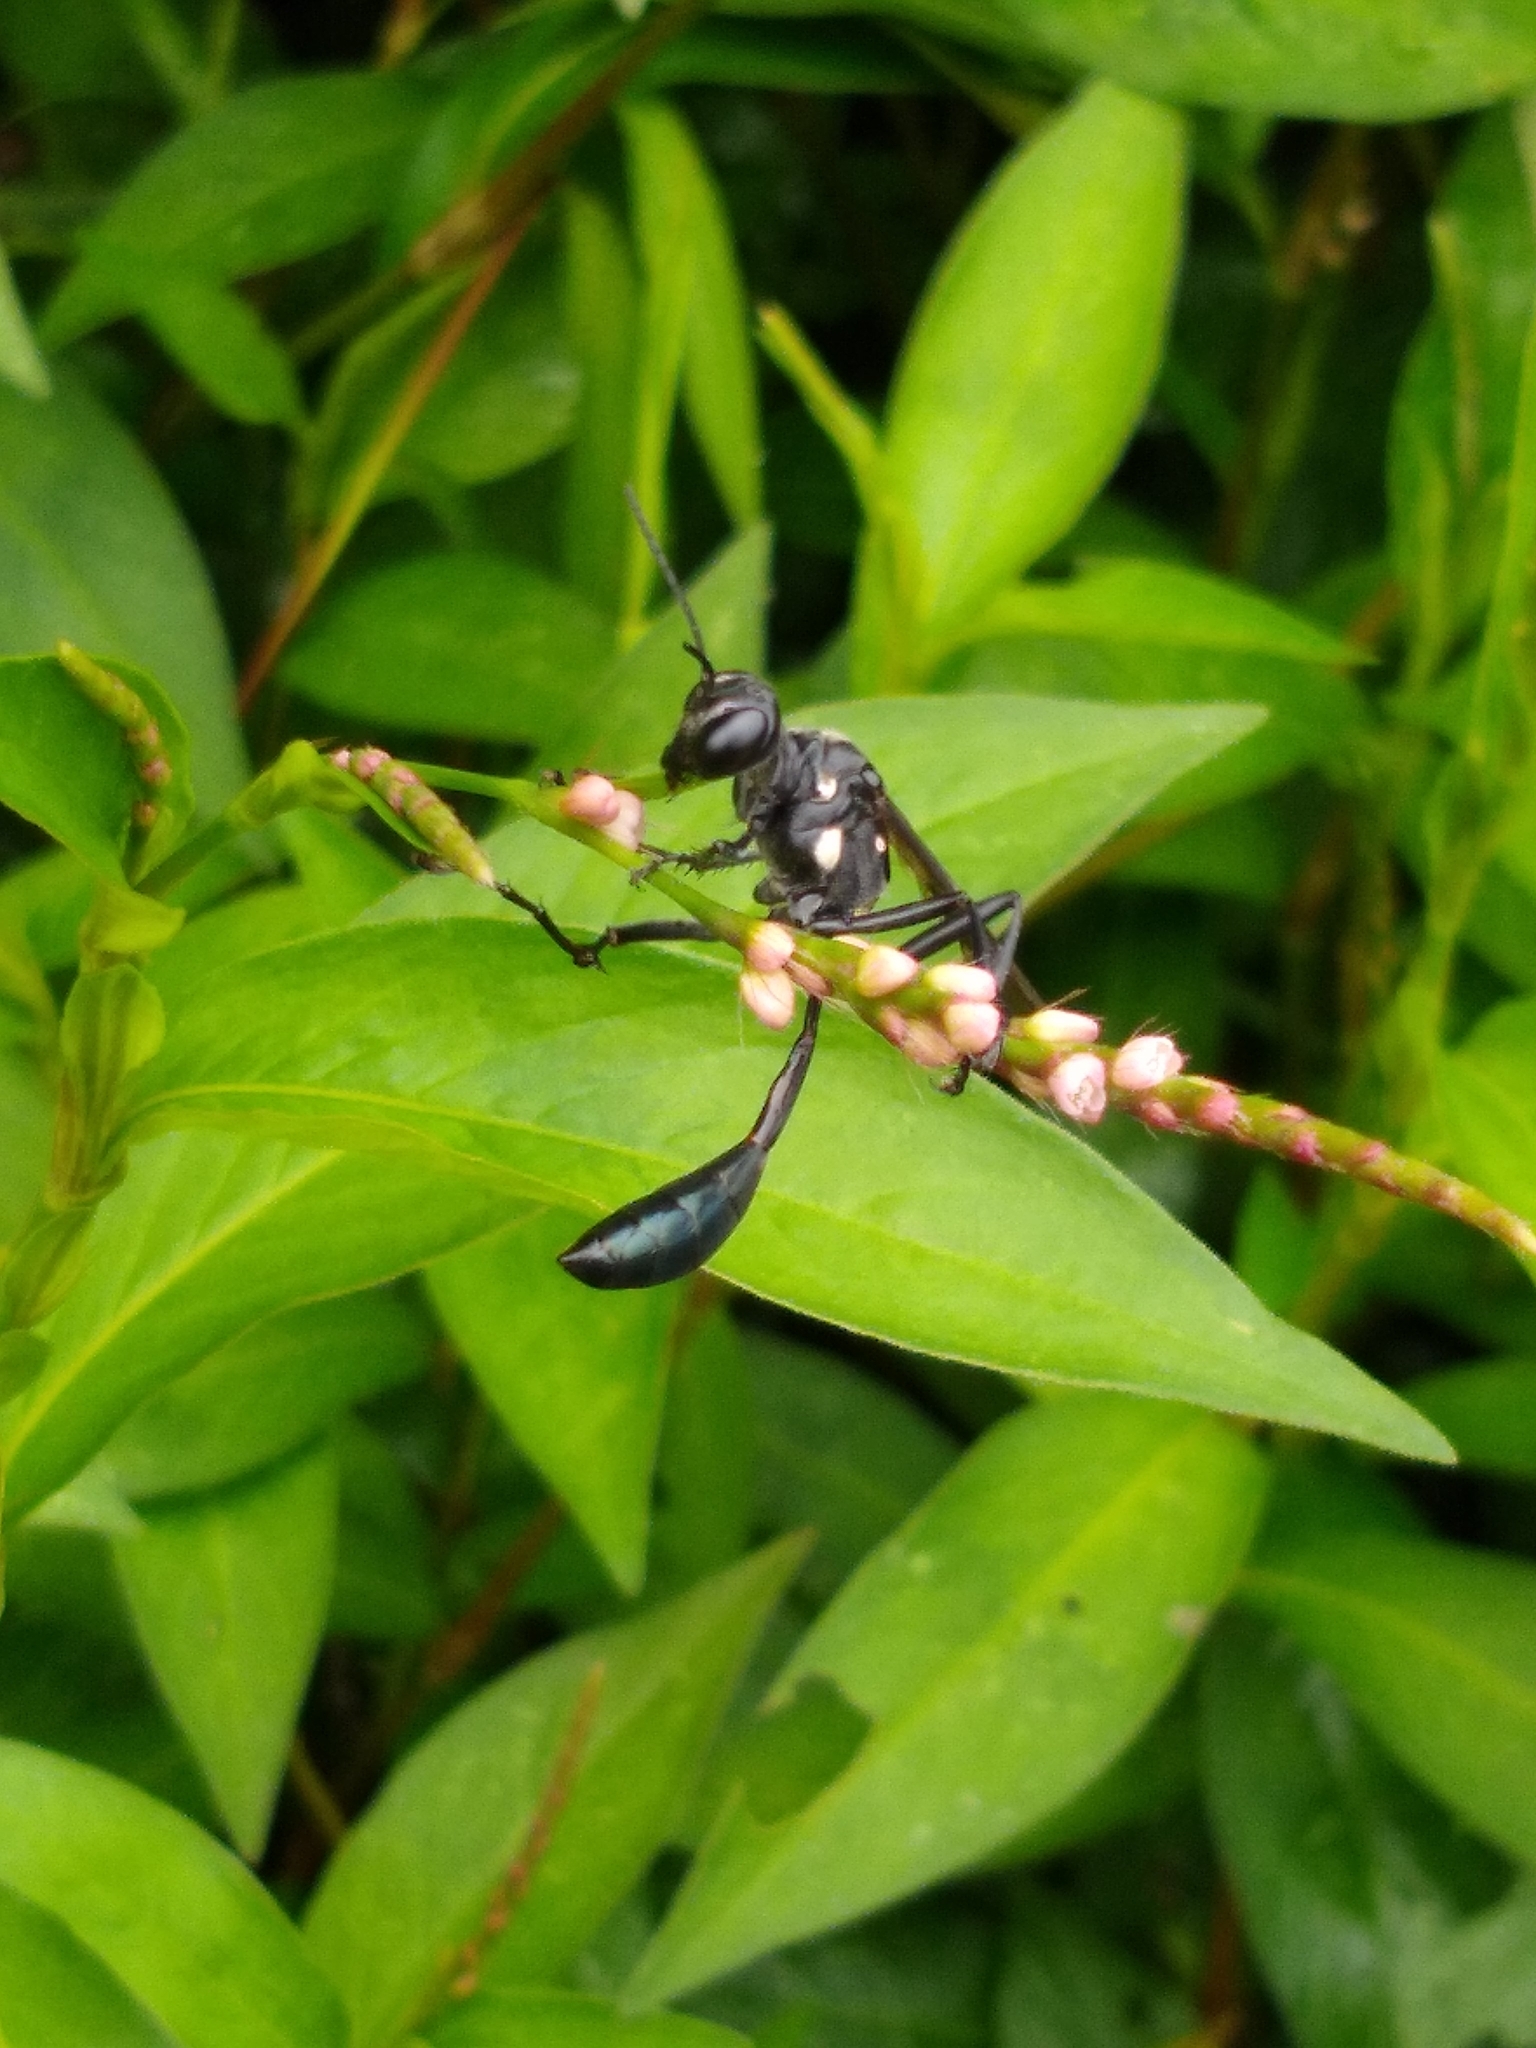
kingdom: Animalia
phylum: Arthropoda
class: Insecta
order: Hymenoptera
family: Sphecidae
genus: Eremnophila
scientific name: Eremnophila aureonotata
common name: Gold-marked thread-waisted wasp
